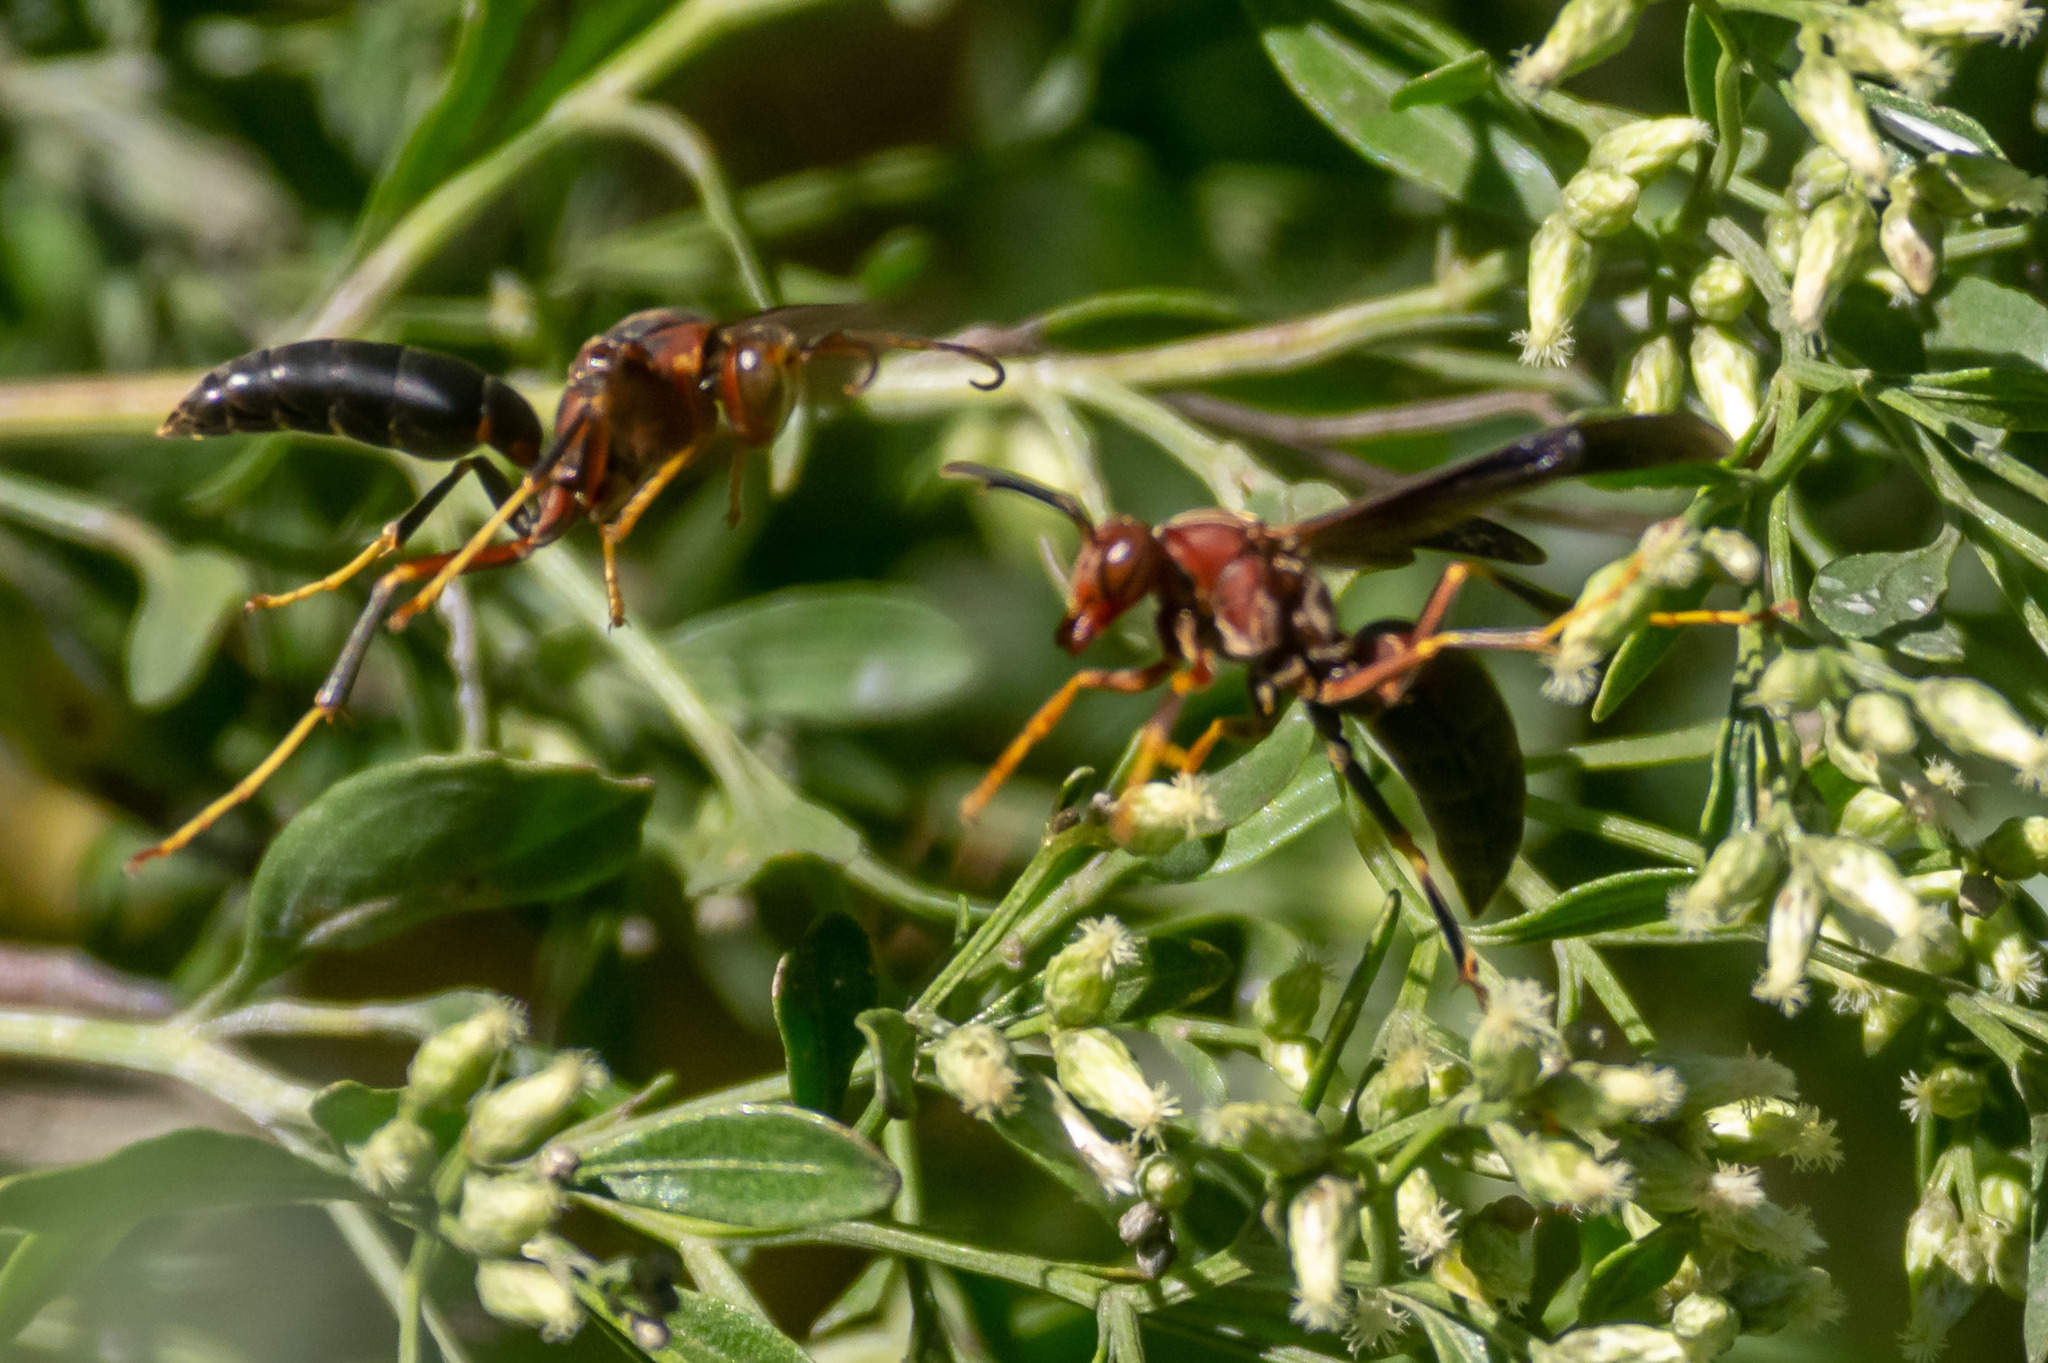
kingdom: Animalia
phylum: Arthropoda
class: Insecta
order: Hymenoptera
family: Eumenidae
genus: Polistes
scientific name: Polistes metricus
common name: Metric paper wasp
